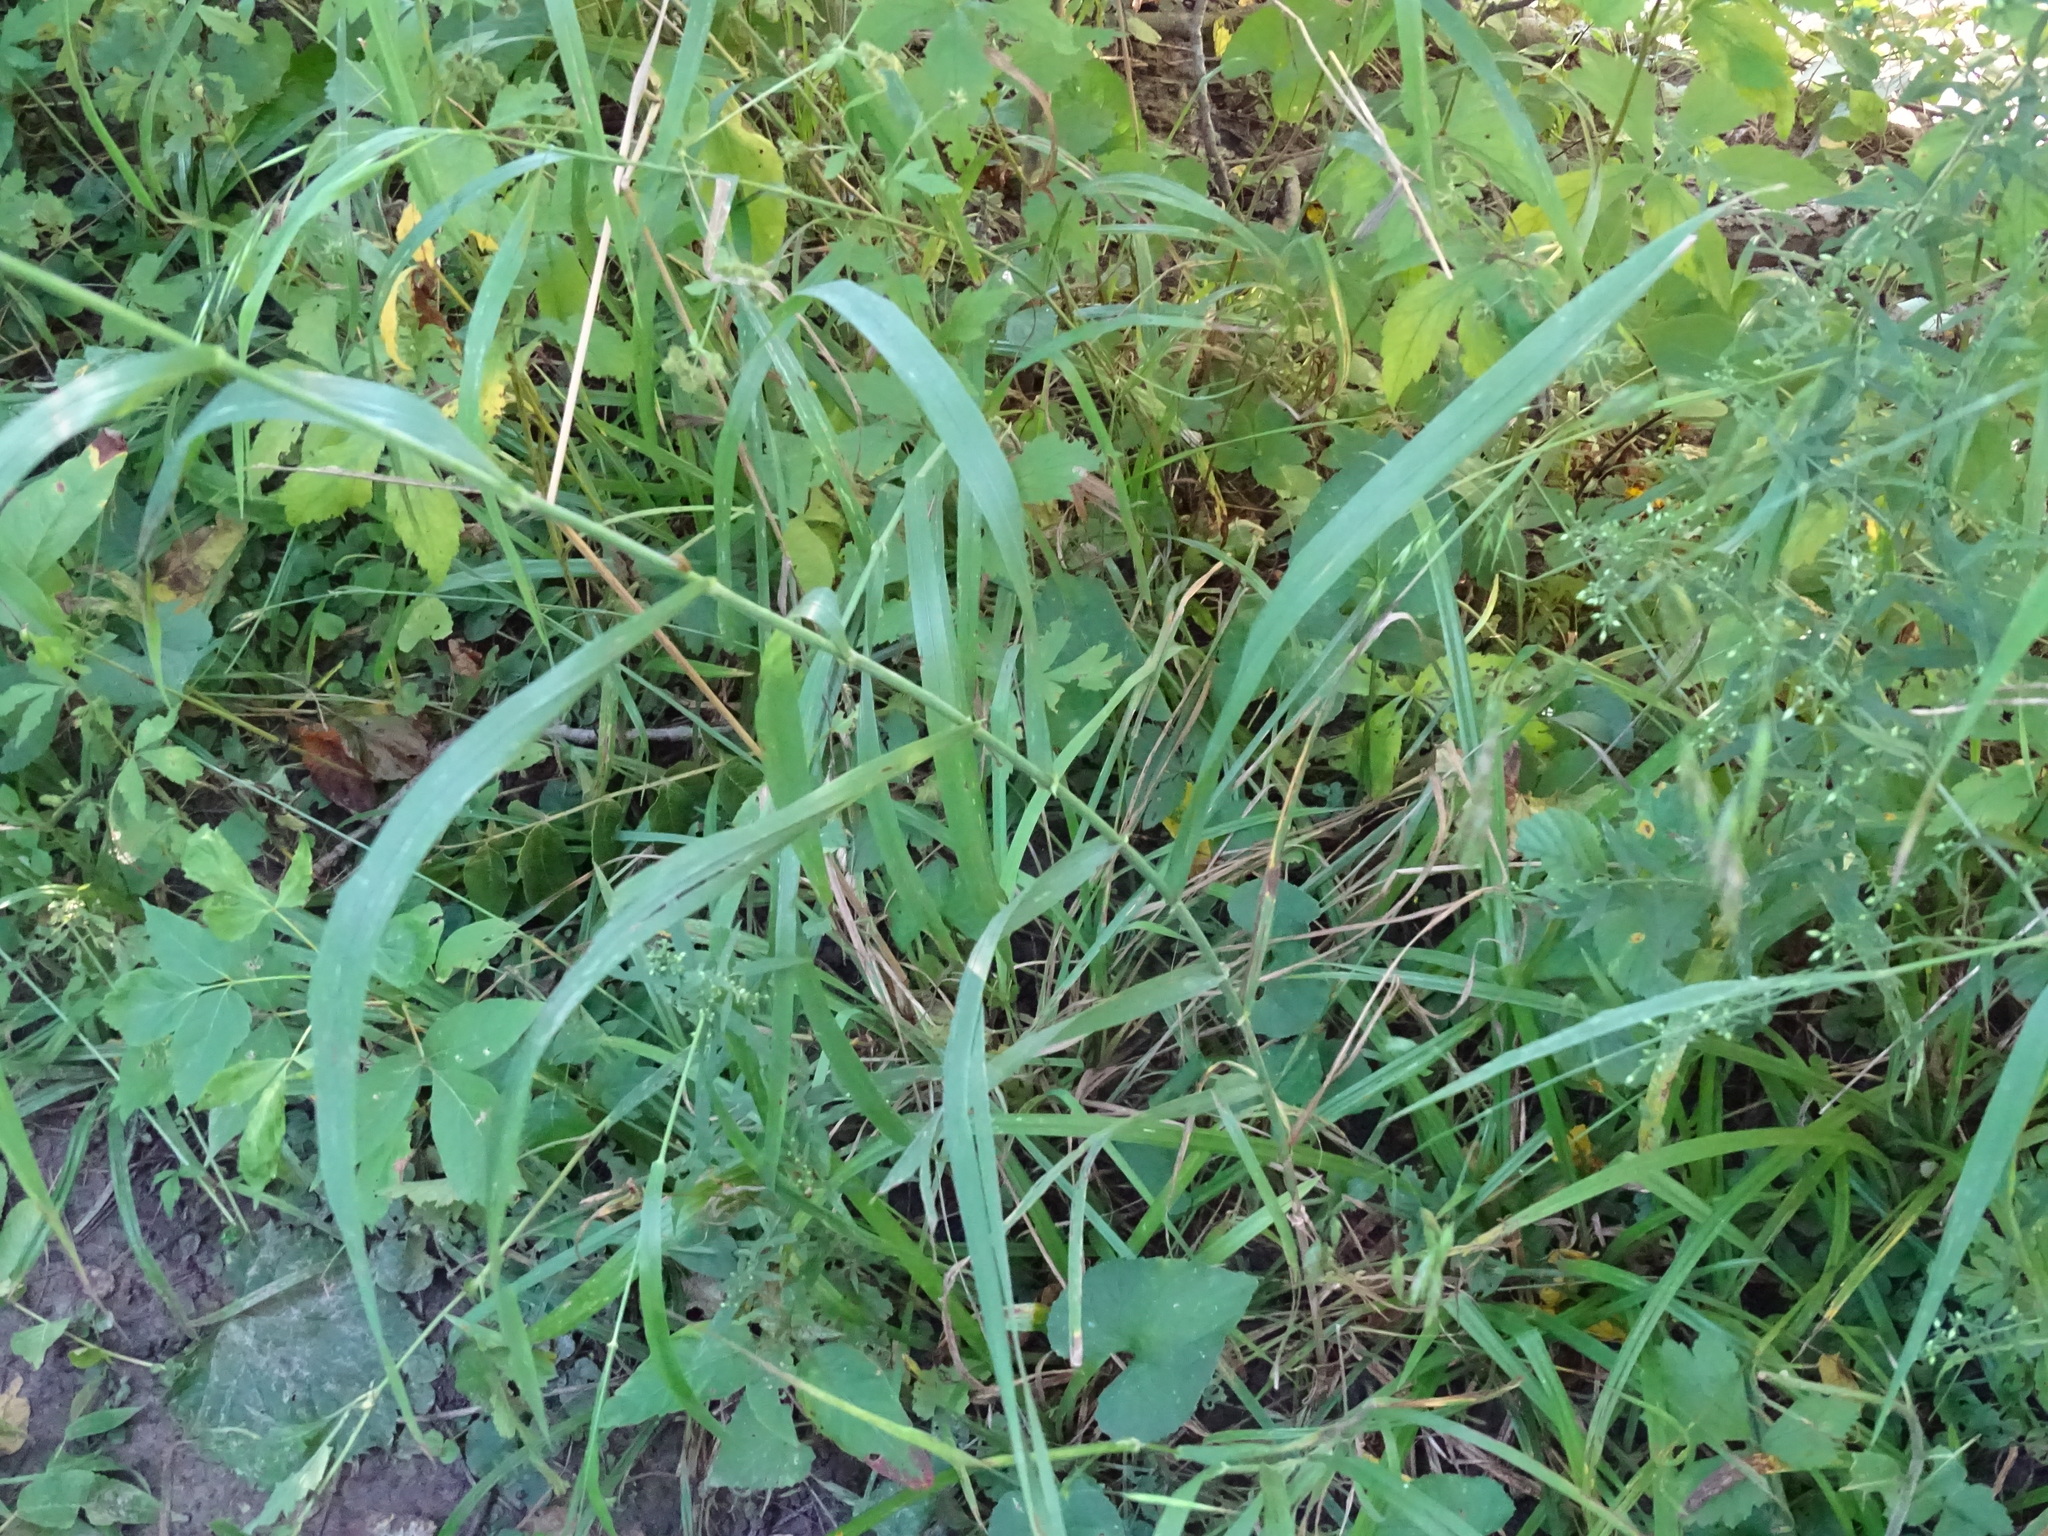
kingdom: Plantae
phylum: Tracheophyta
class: Liliopsida
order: Poales
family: Poaceae
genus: Bromus
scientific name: Bromus latiglumis
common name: Broad-glumed brome
